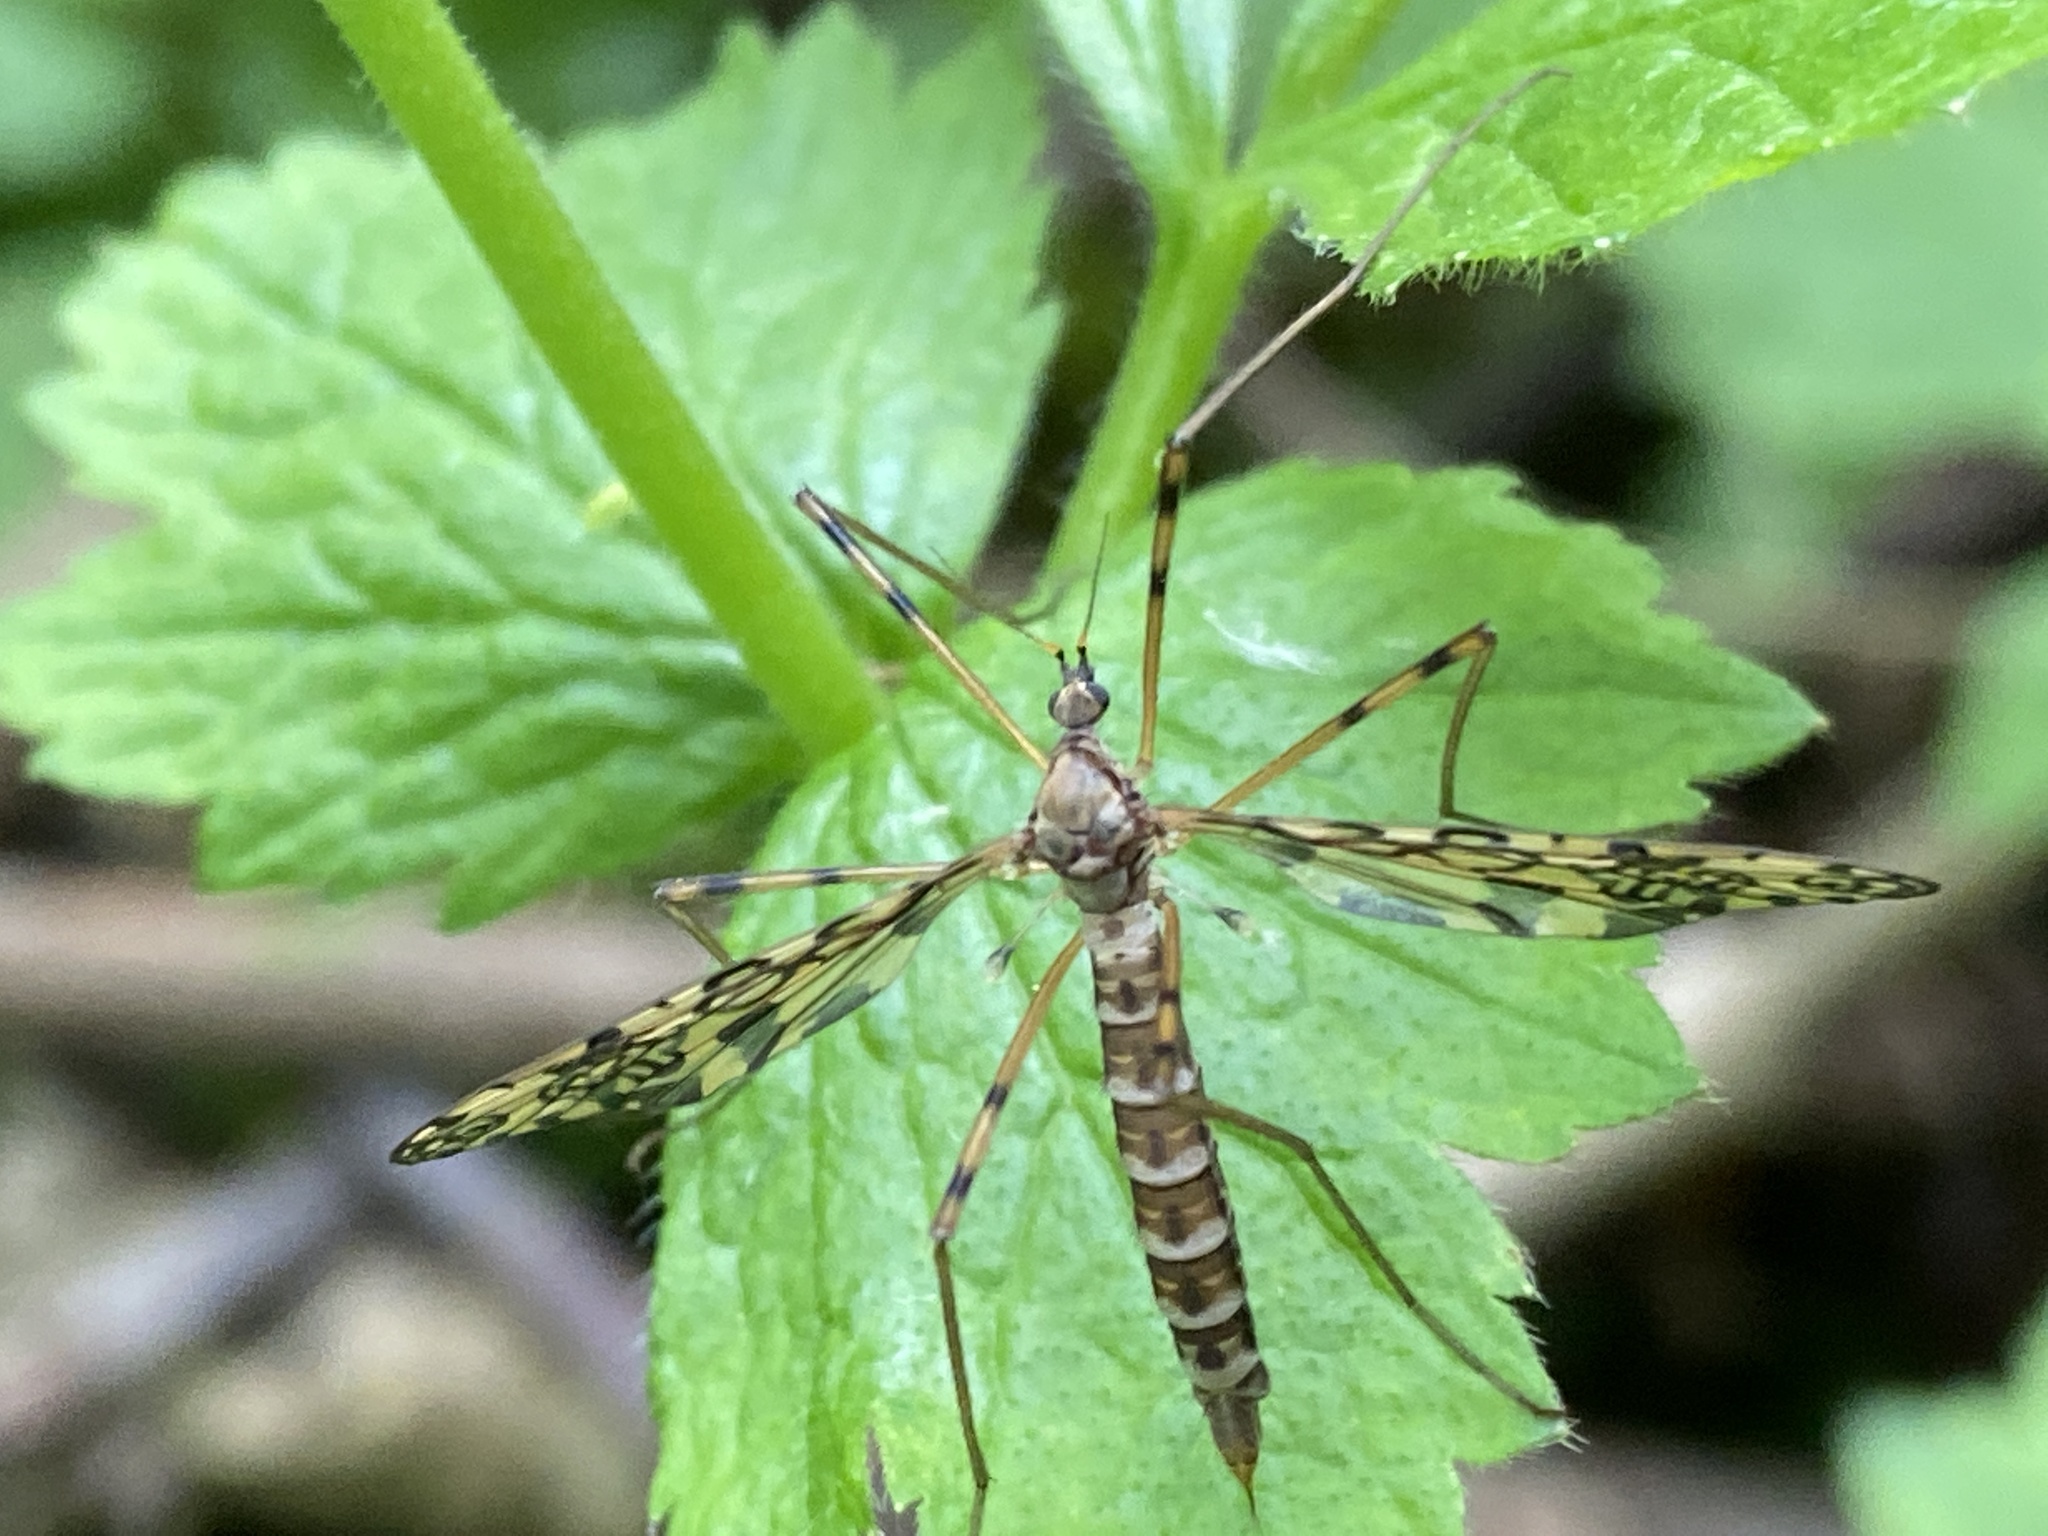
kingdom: Animalia
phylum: Arthropoda
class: Insecta
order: Diptera
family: Limoniidae
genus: Epiphragma
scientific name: Epiphragma ocellare
